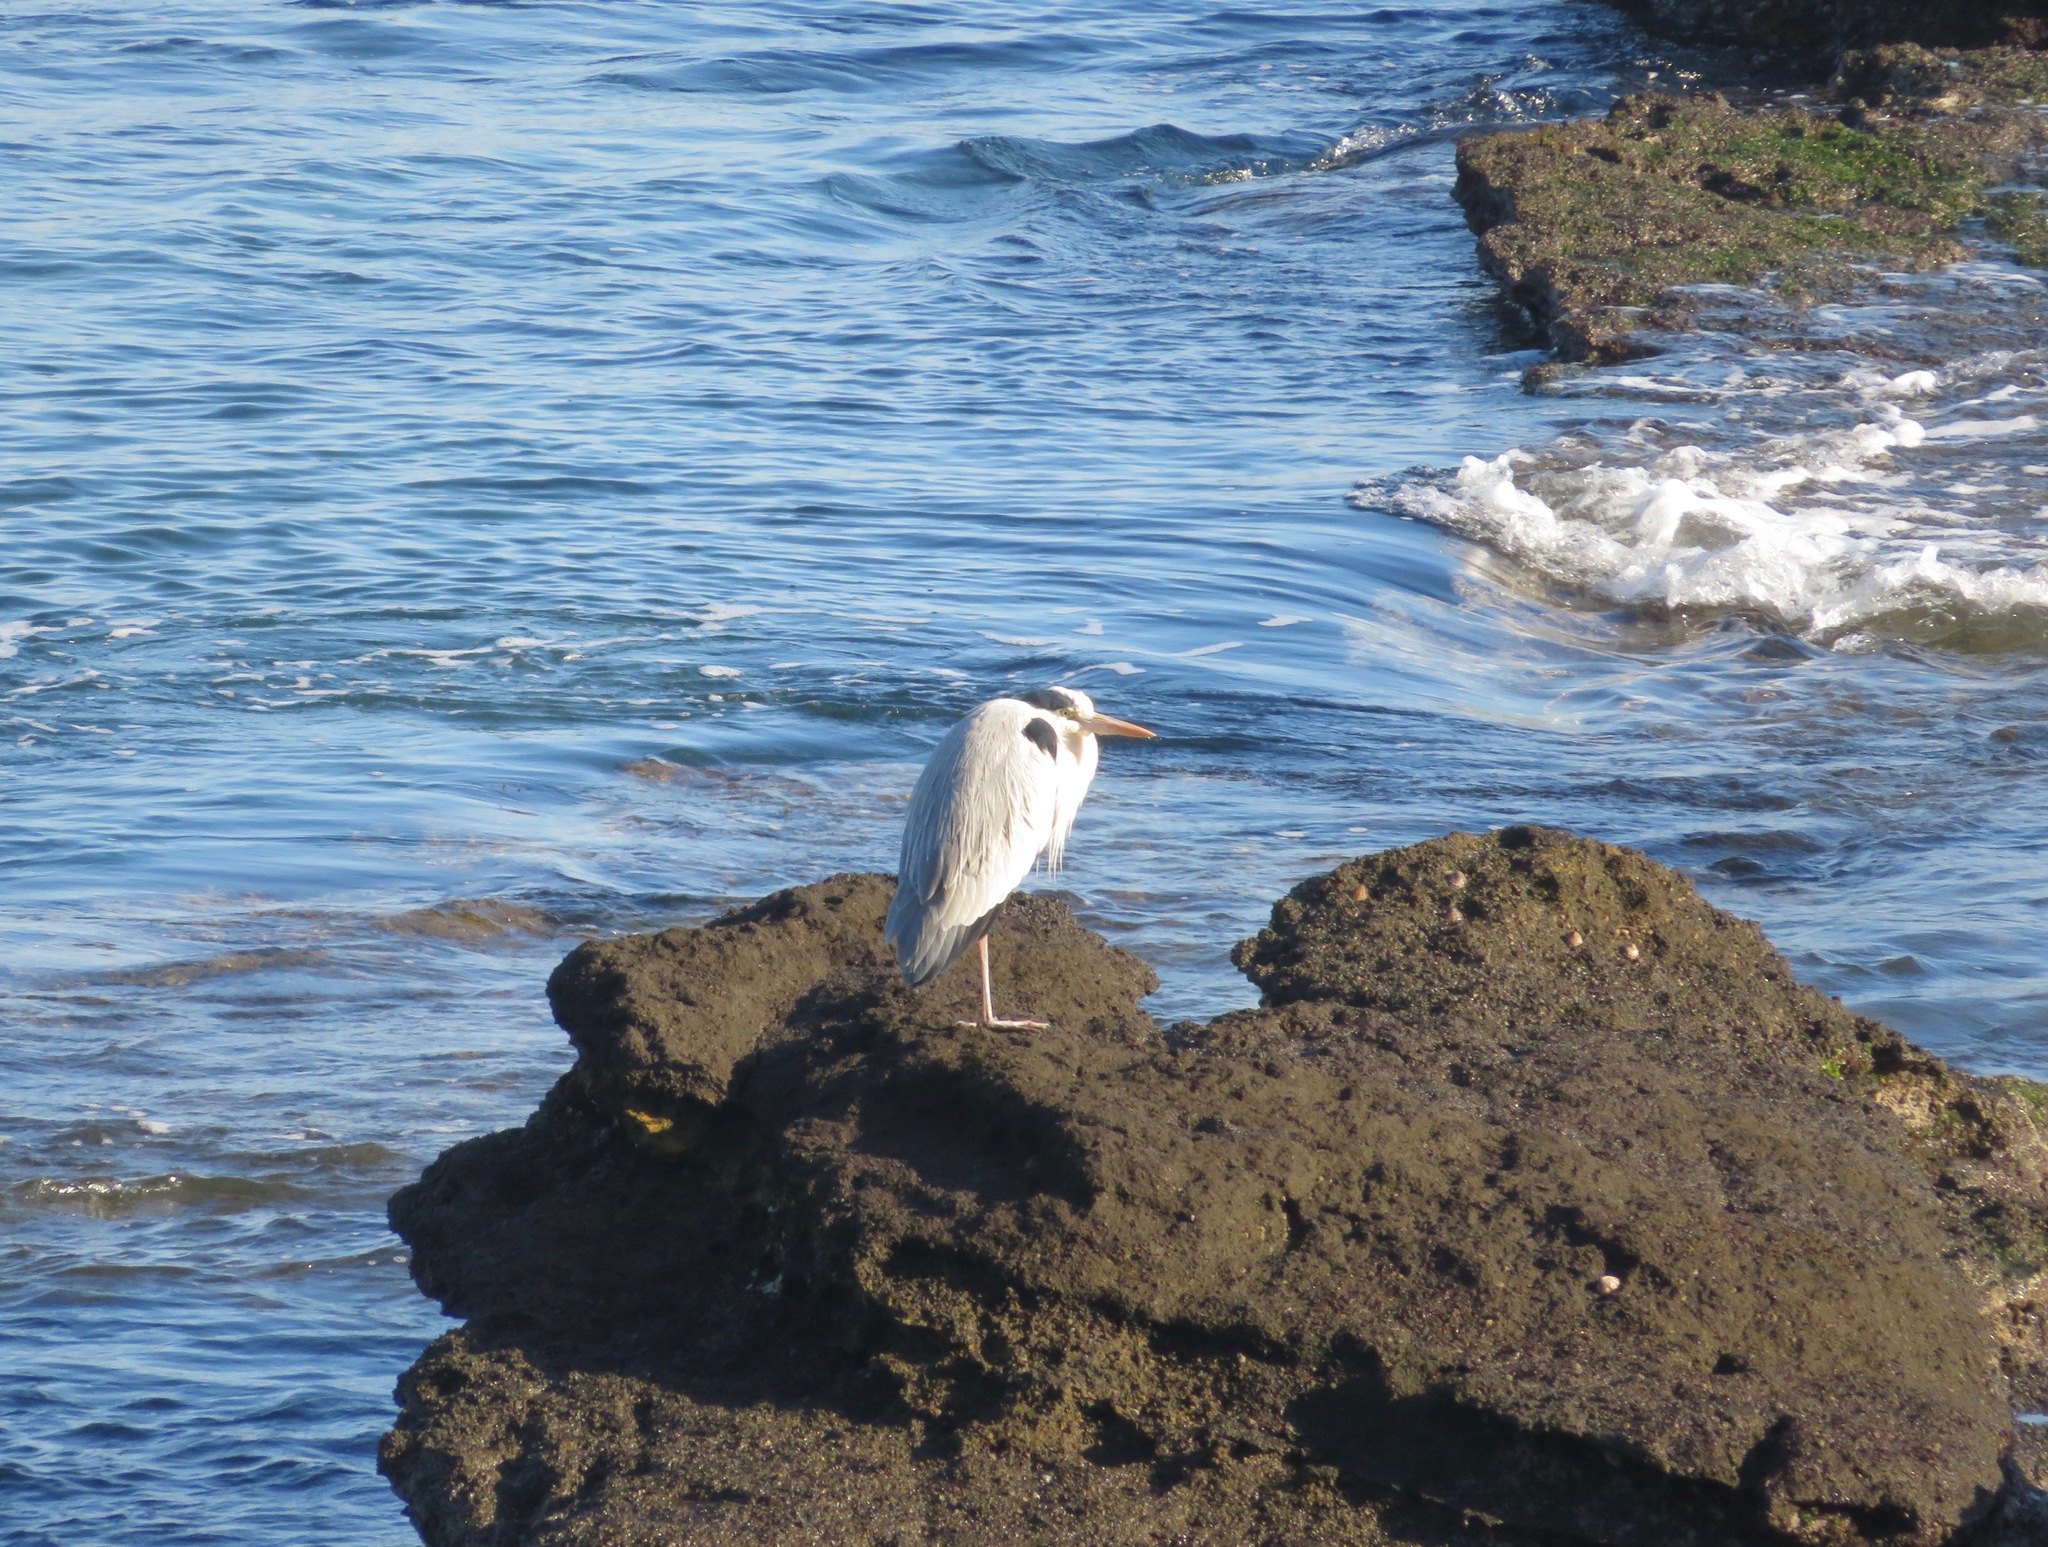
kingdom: Animalia
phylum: Chordata
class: Aves
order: Pelecaniformes
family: Ardeidae
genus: Ardea
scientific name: Ardea cinerea
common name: Grey heron
